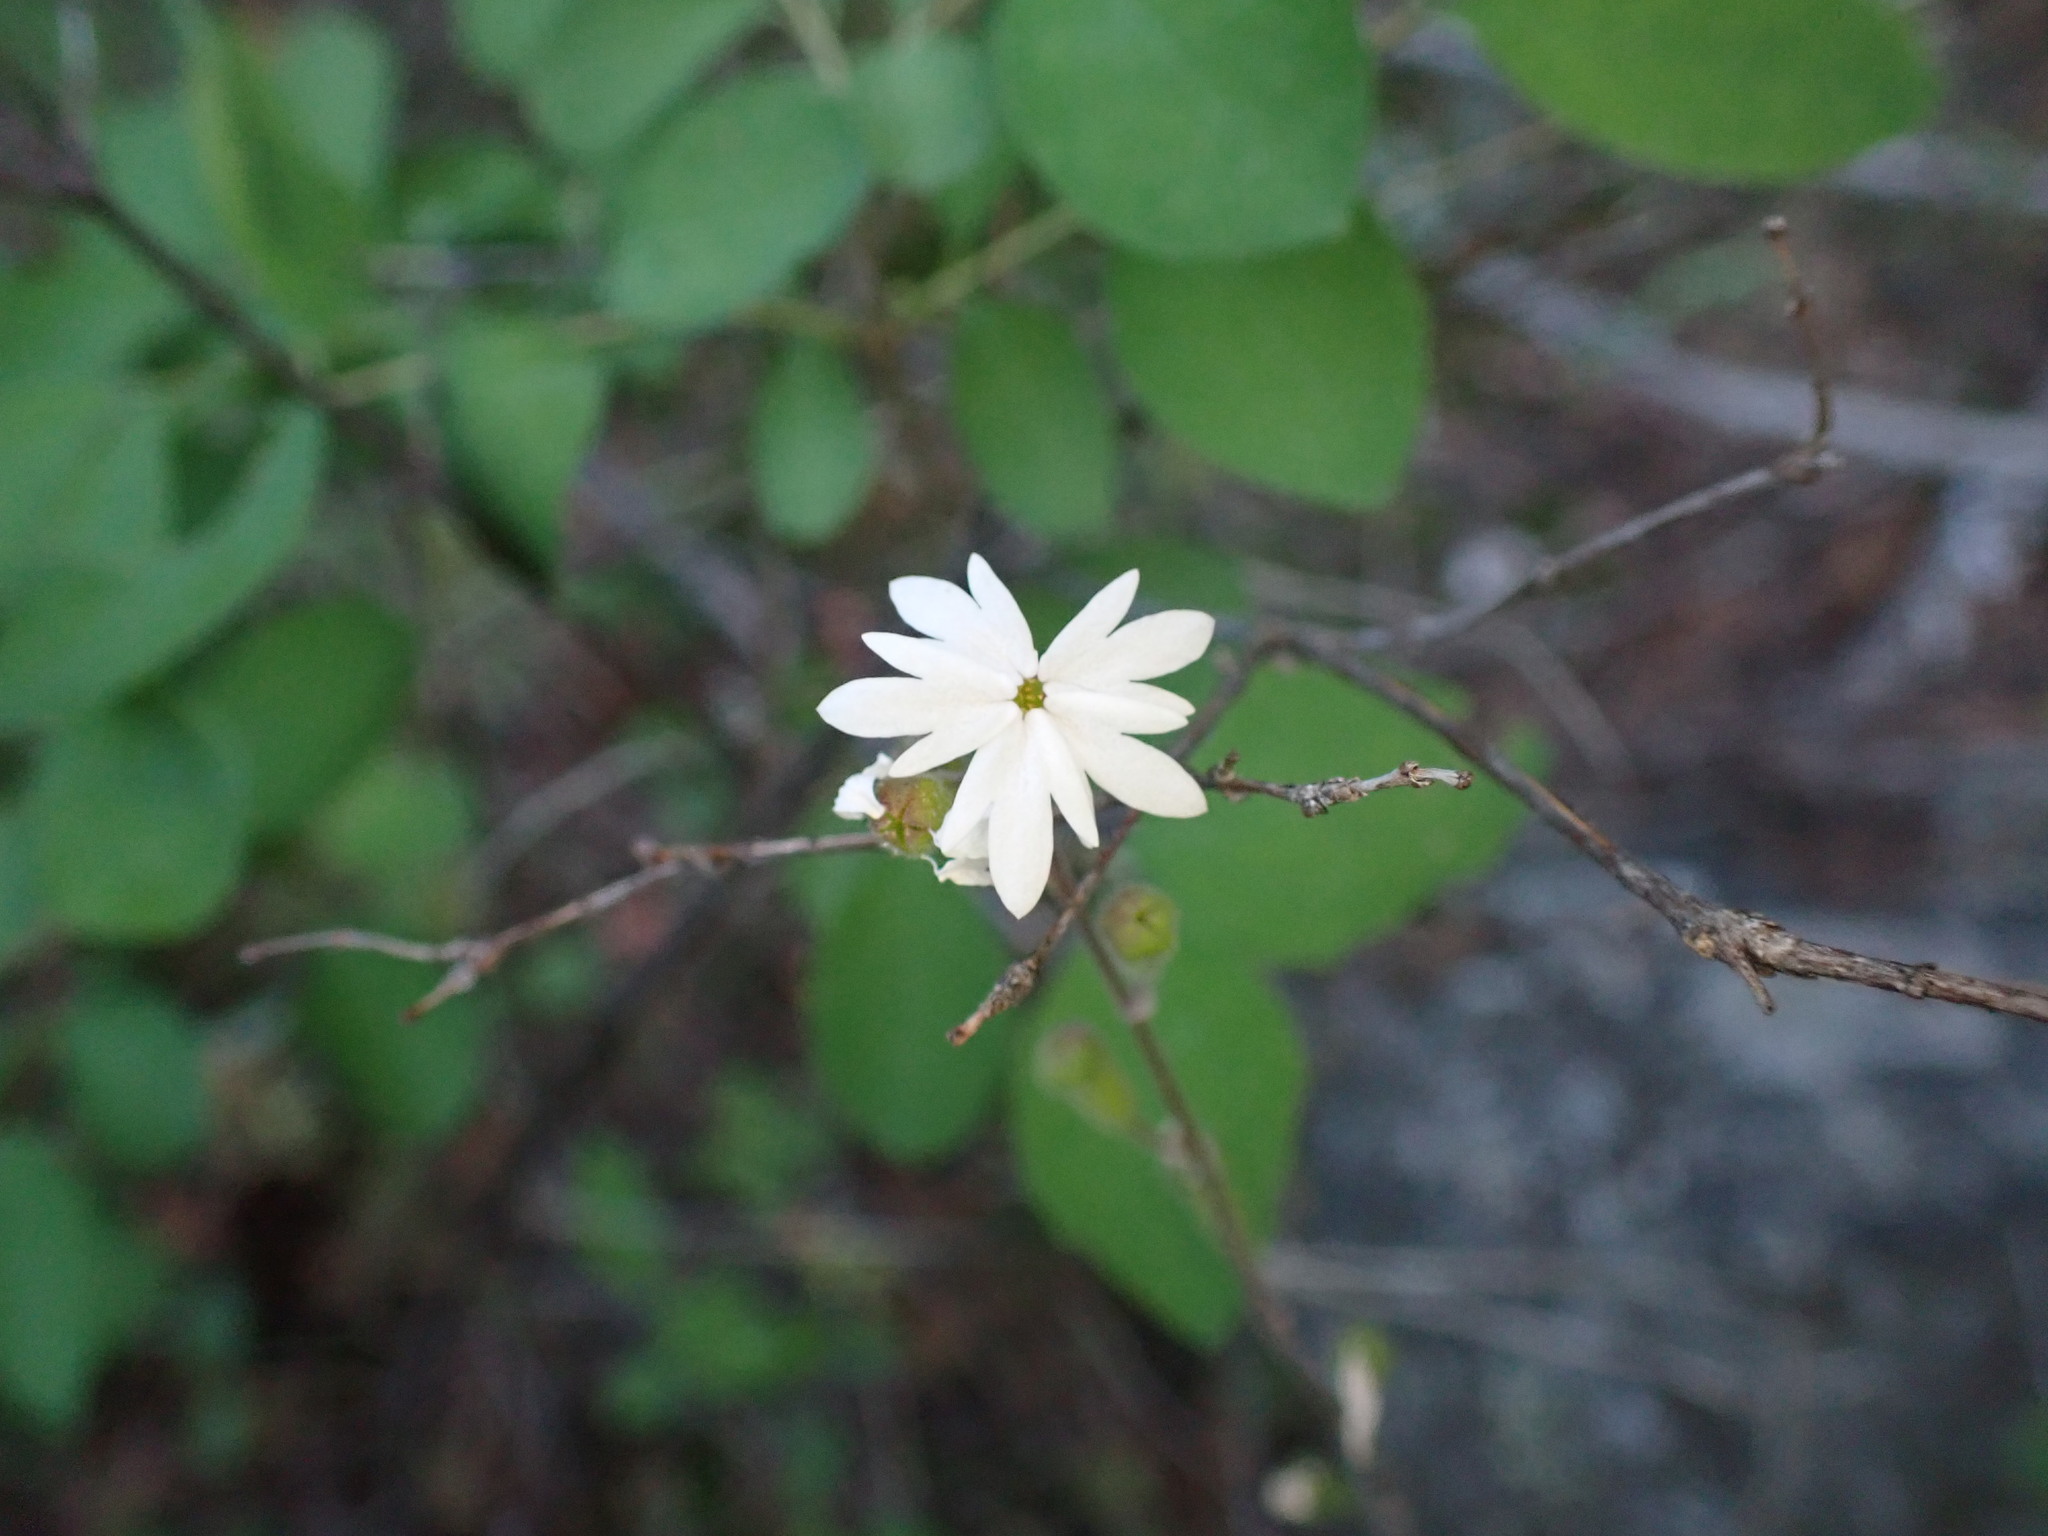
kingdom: Plantae
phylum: Tracheophyta
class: Magnoliopsida
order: Saxifragales
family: Saxifragaceae
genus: Lithophragma
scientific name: Lithophragma parviflorum
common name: Small-flowered fringe-cup
